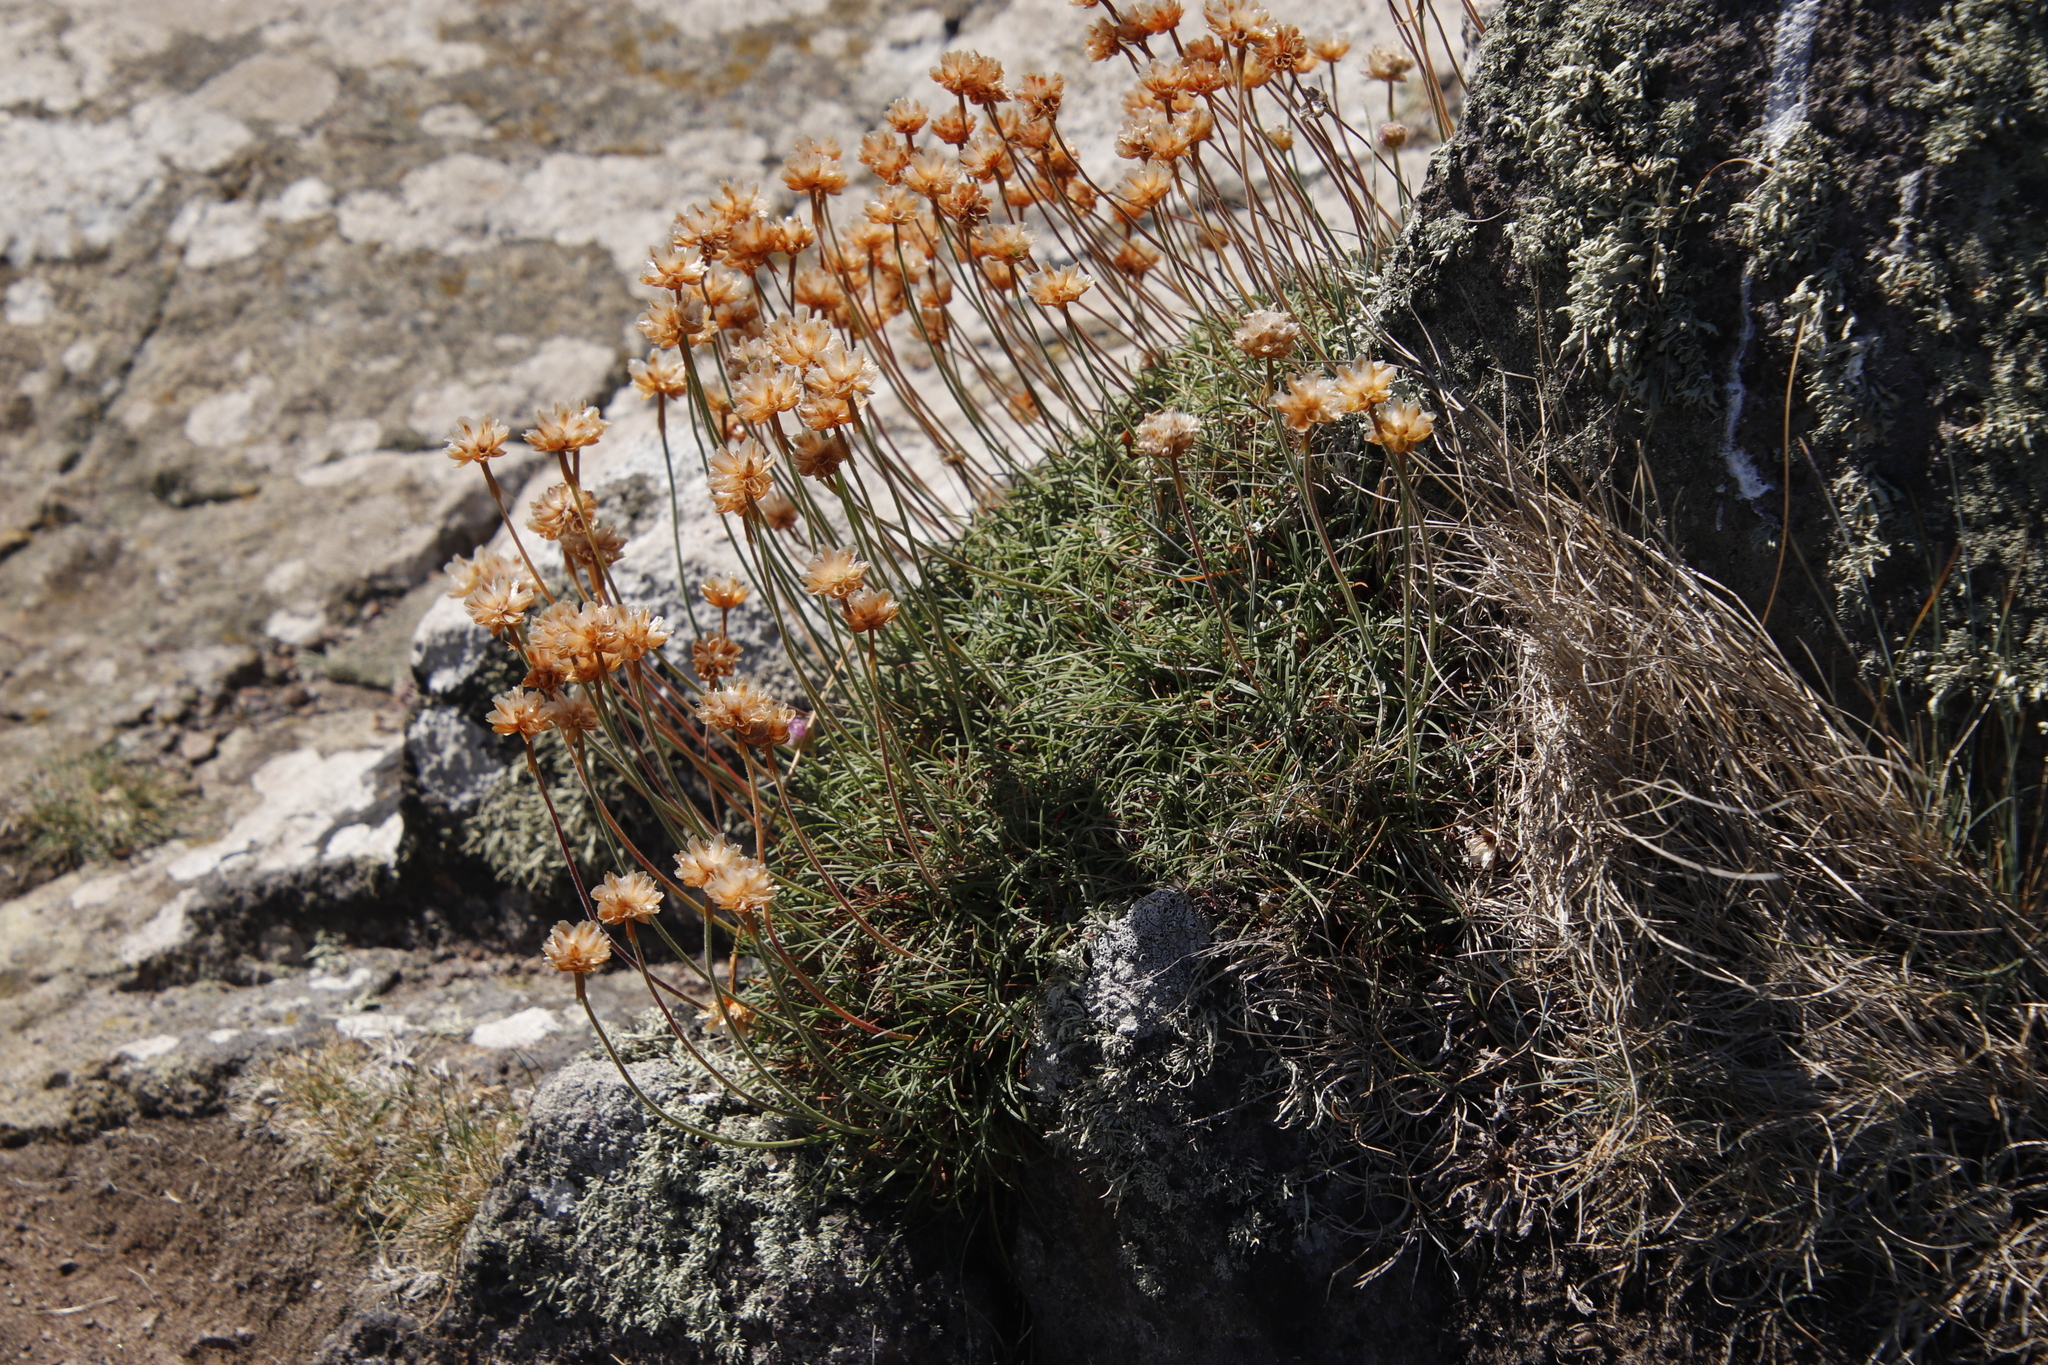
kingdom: Plantae
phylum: Tracheophyta
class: Magnoliopsida
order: Caryophyllales
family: Plumbaginaceae
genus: Armeria
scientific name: Armeria maritima
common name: Thrift
